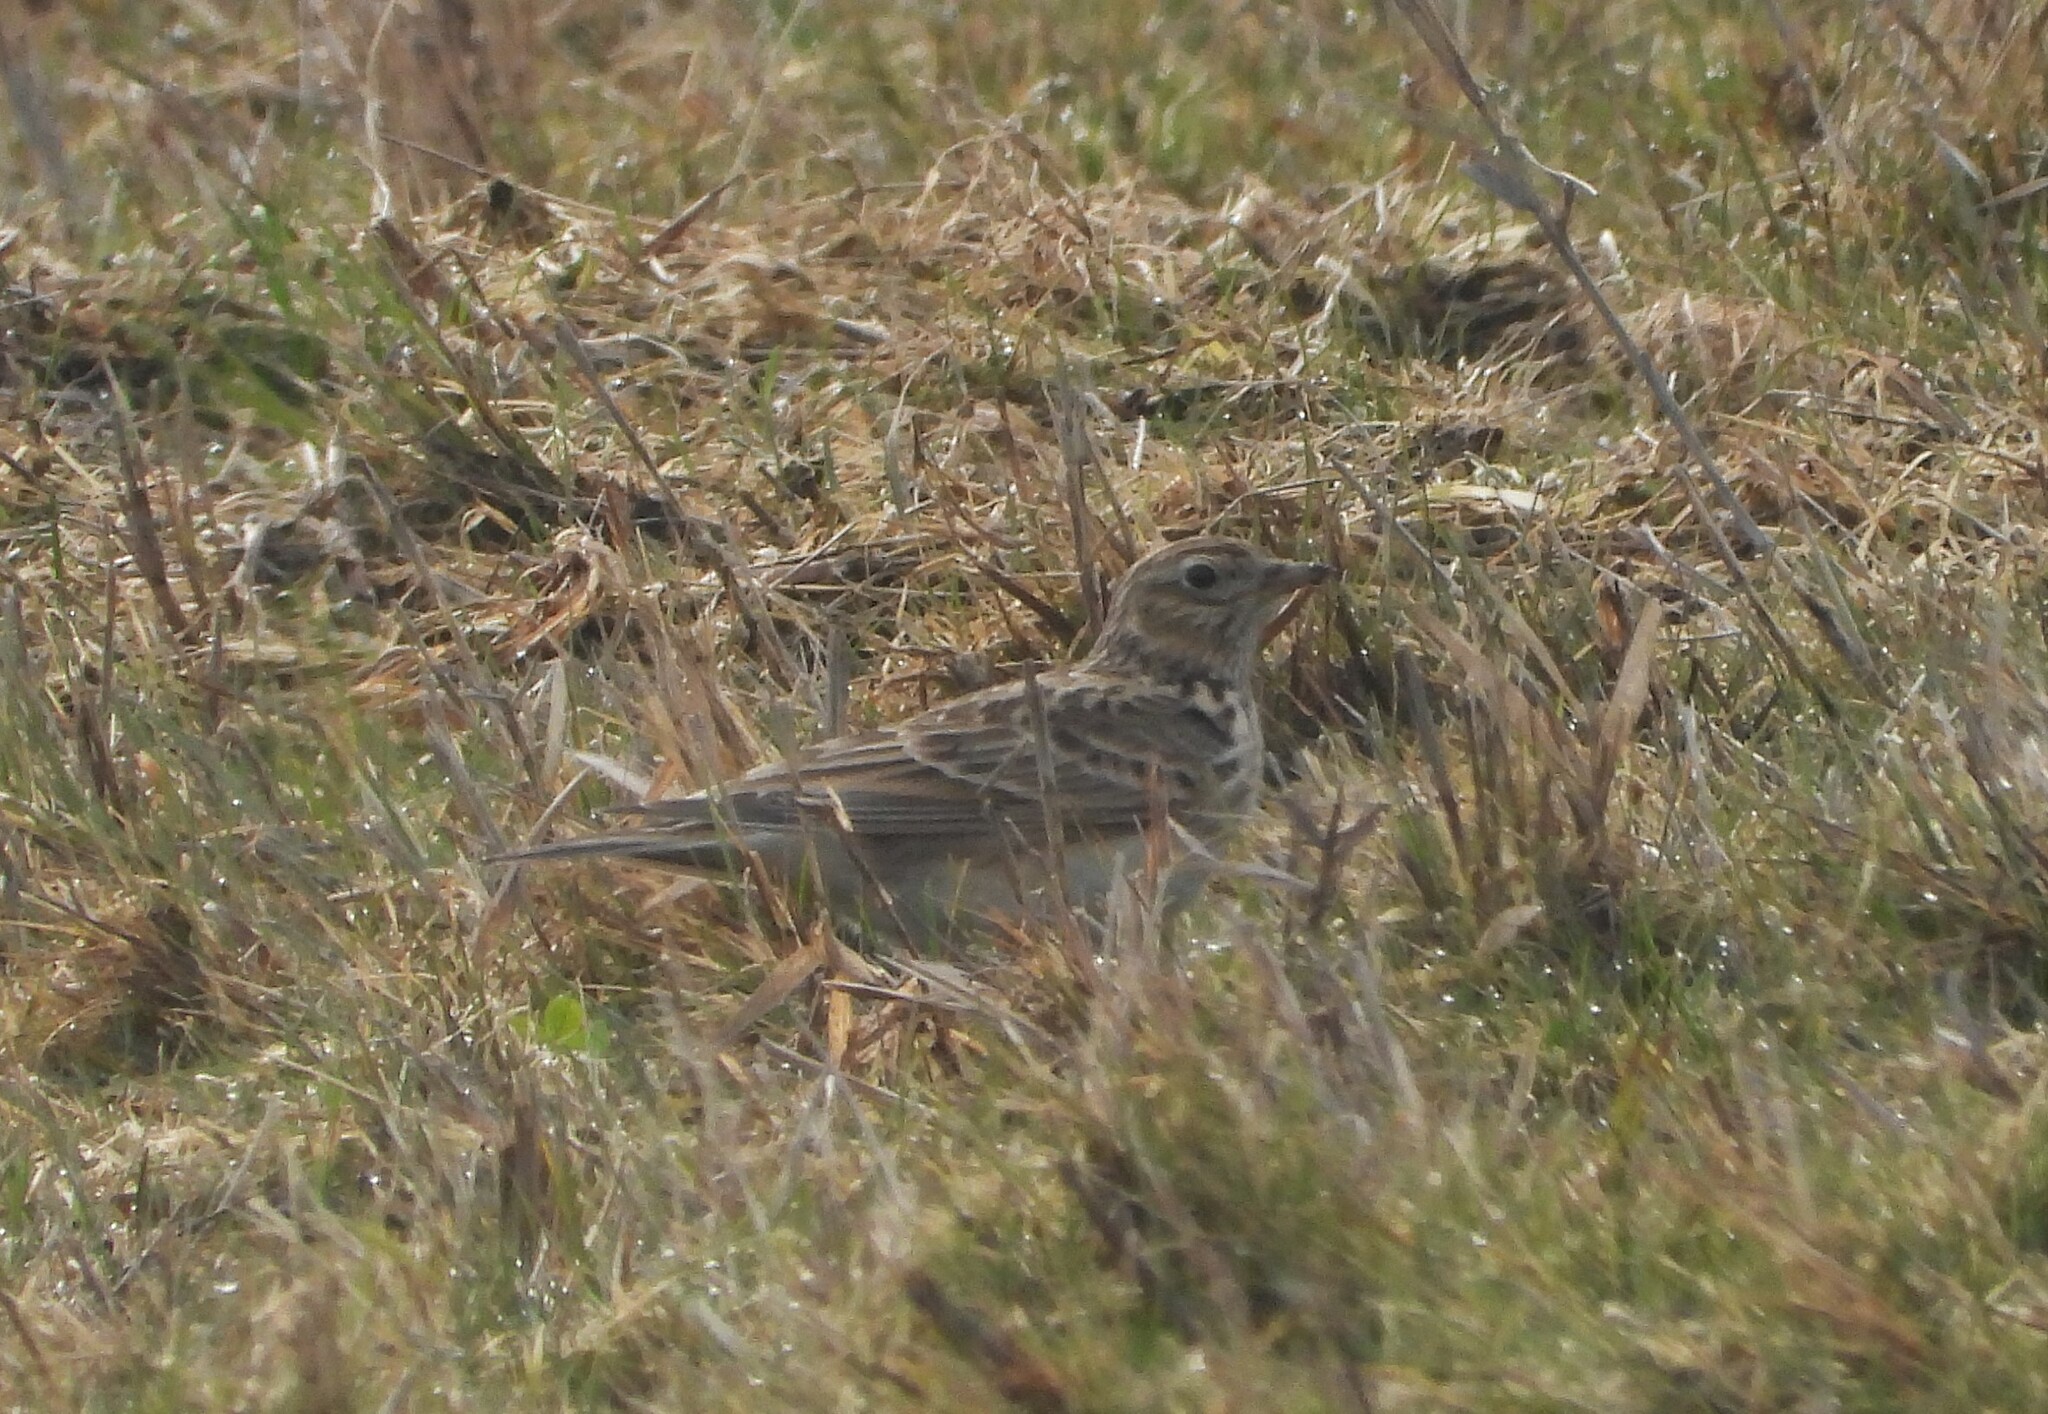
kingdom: Animalia
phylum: Chordata
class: Aves
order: Passeriformes
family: Alaudidae
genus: Alauda
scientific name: Alauda arvensis
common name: Eurasian skylark
